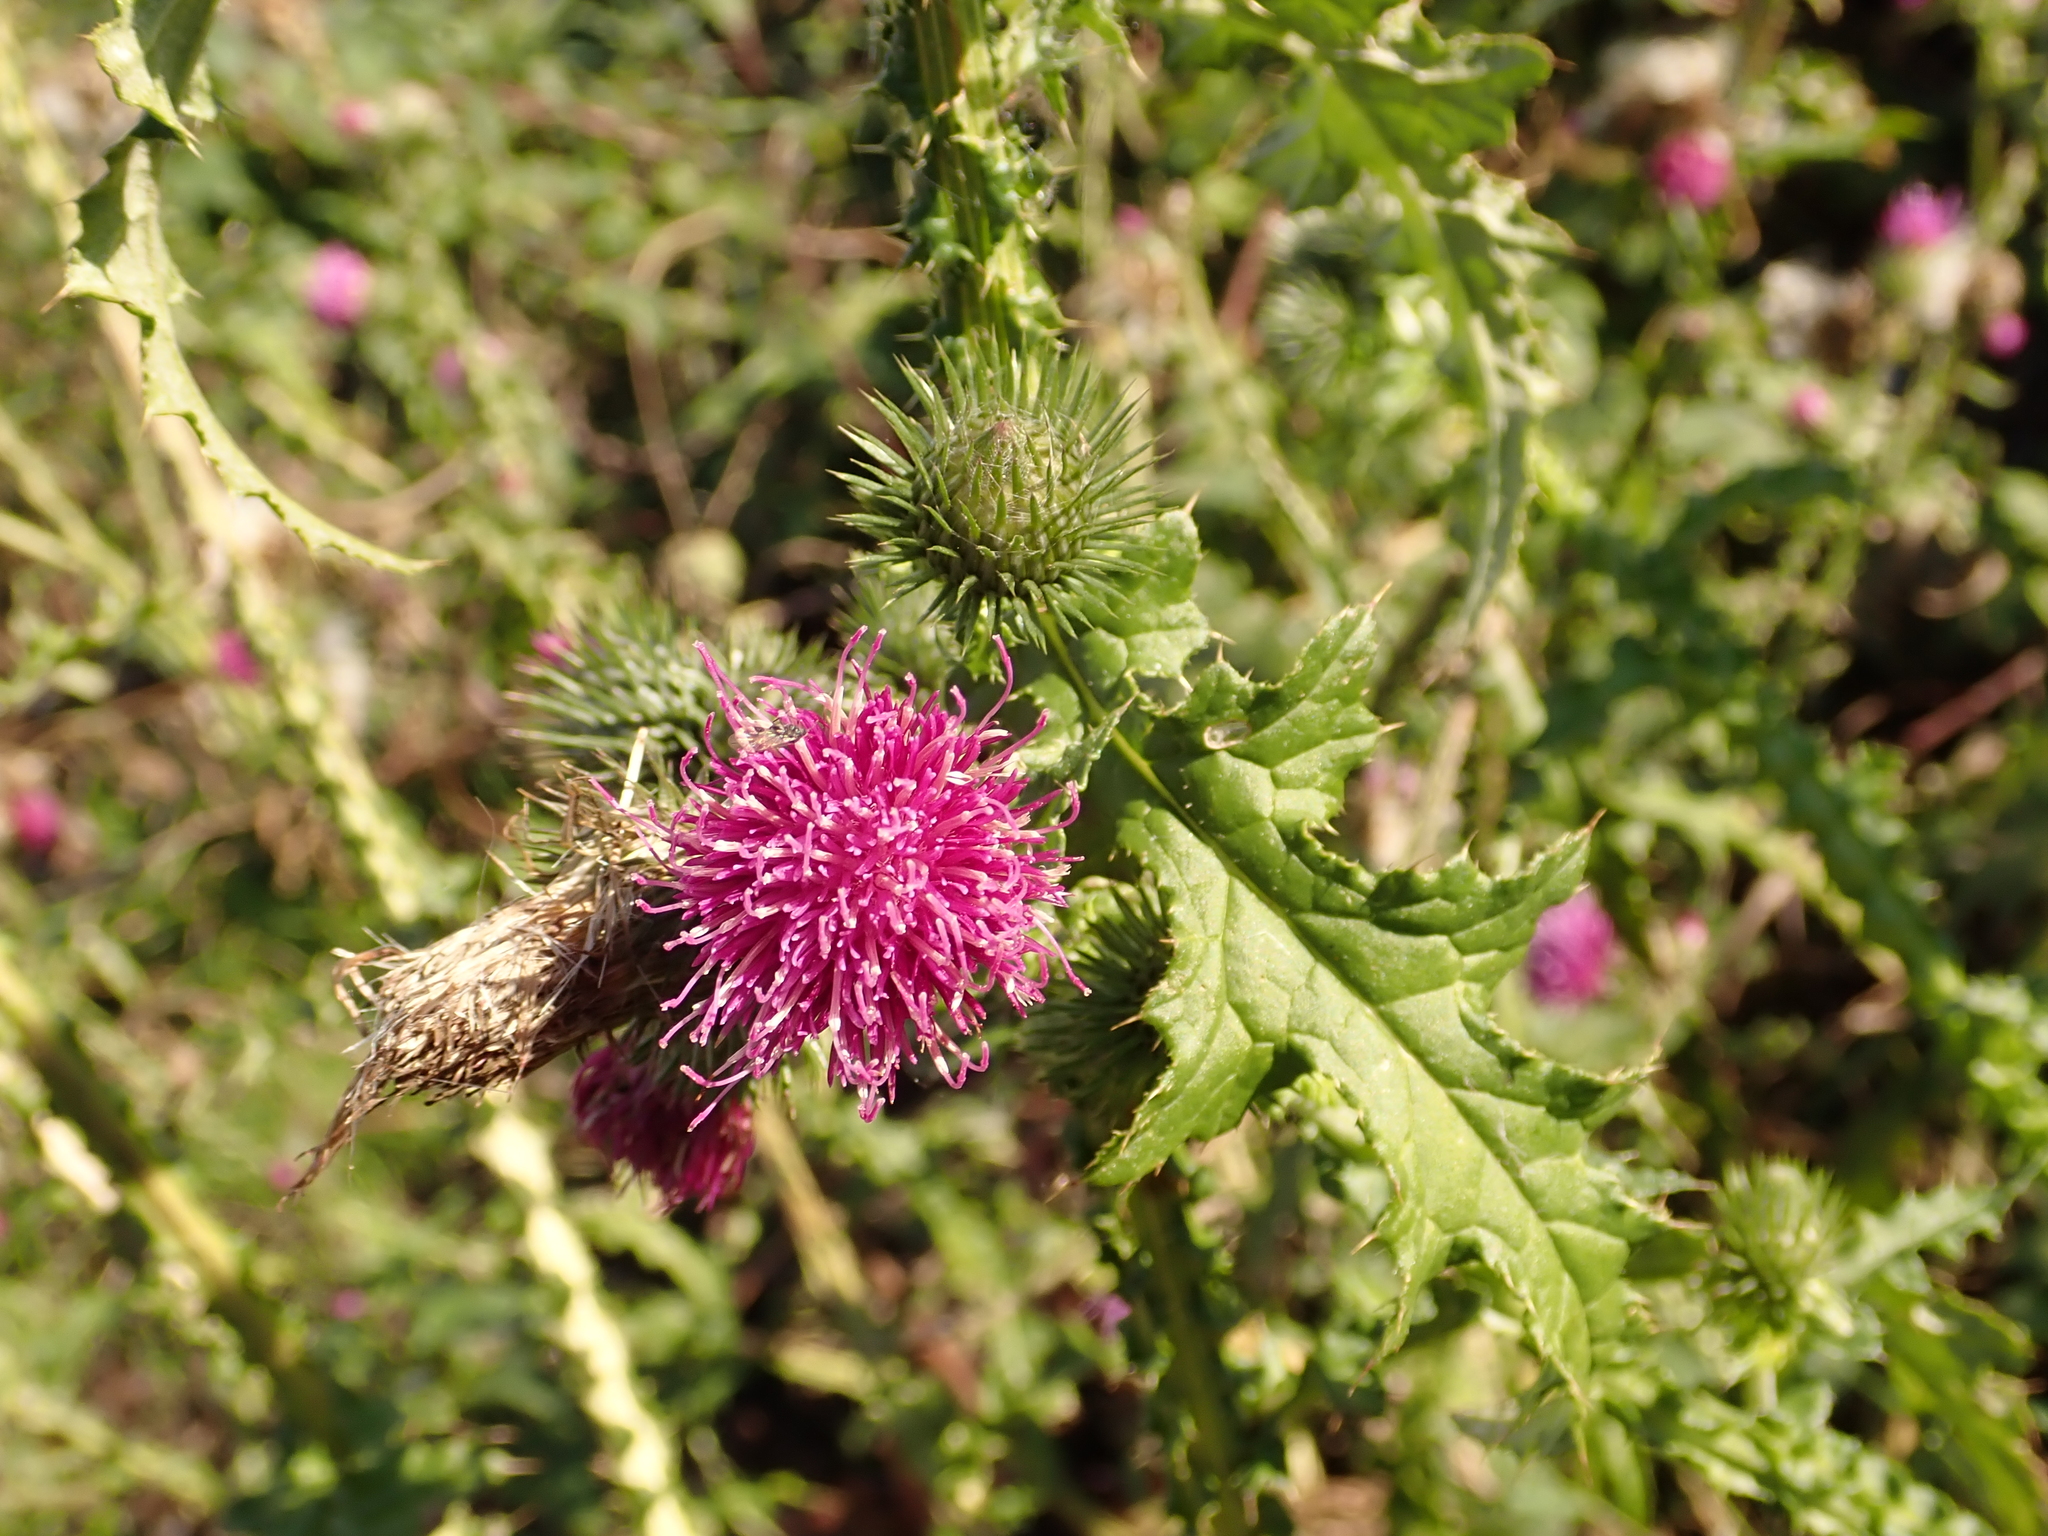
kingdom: Plantae
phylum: Tracheophyta
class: Magnoliopsida
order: Asterales
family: Asteraceae
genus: Carduus
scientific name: Carduus acanthoides
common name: Plumeless thistle
